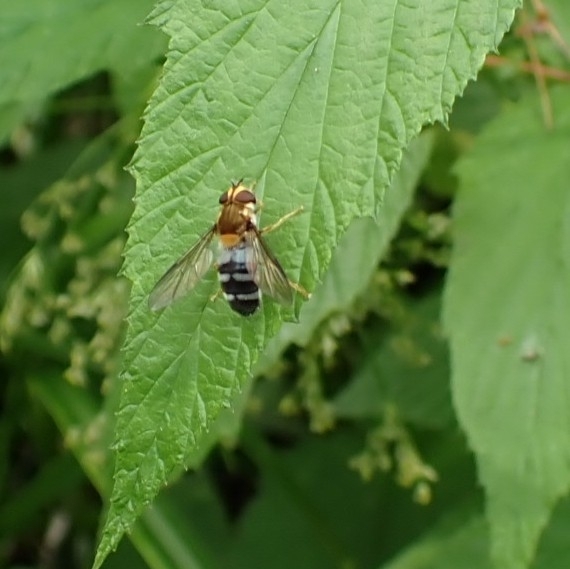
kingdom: Animalia
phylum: Arthropoda
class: Insecta
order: Diptera
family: Syrphidae
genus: Leucozona
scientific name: Leucozona glaucia
